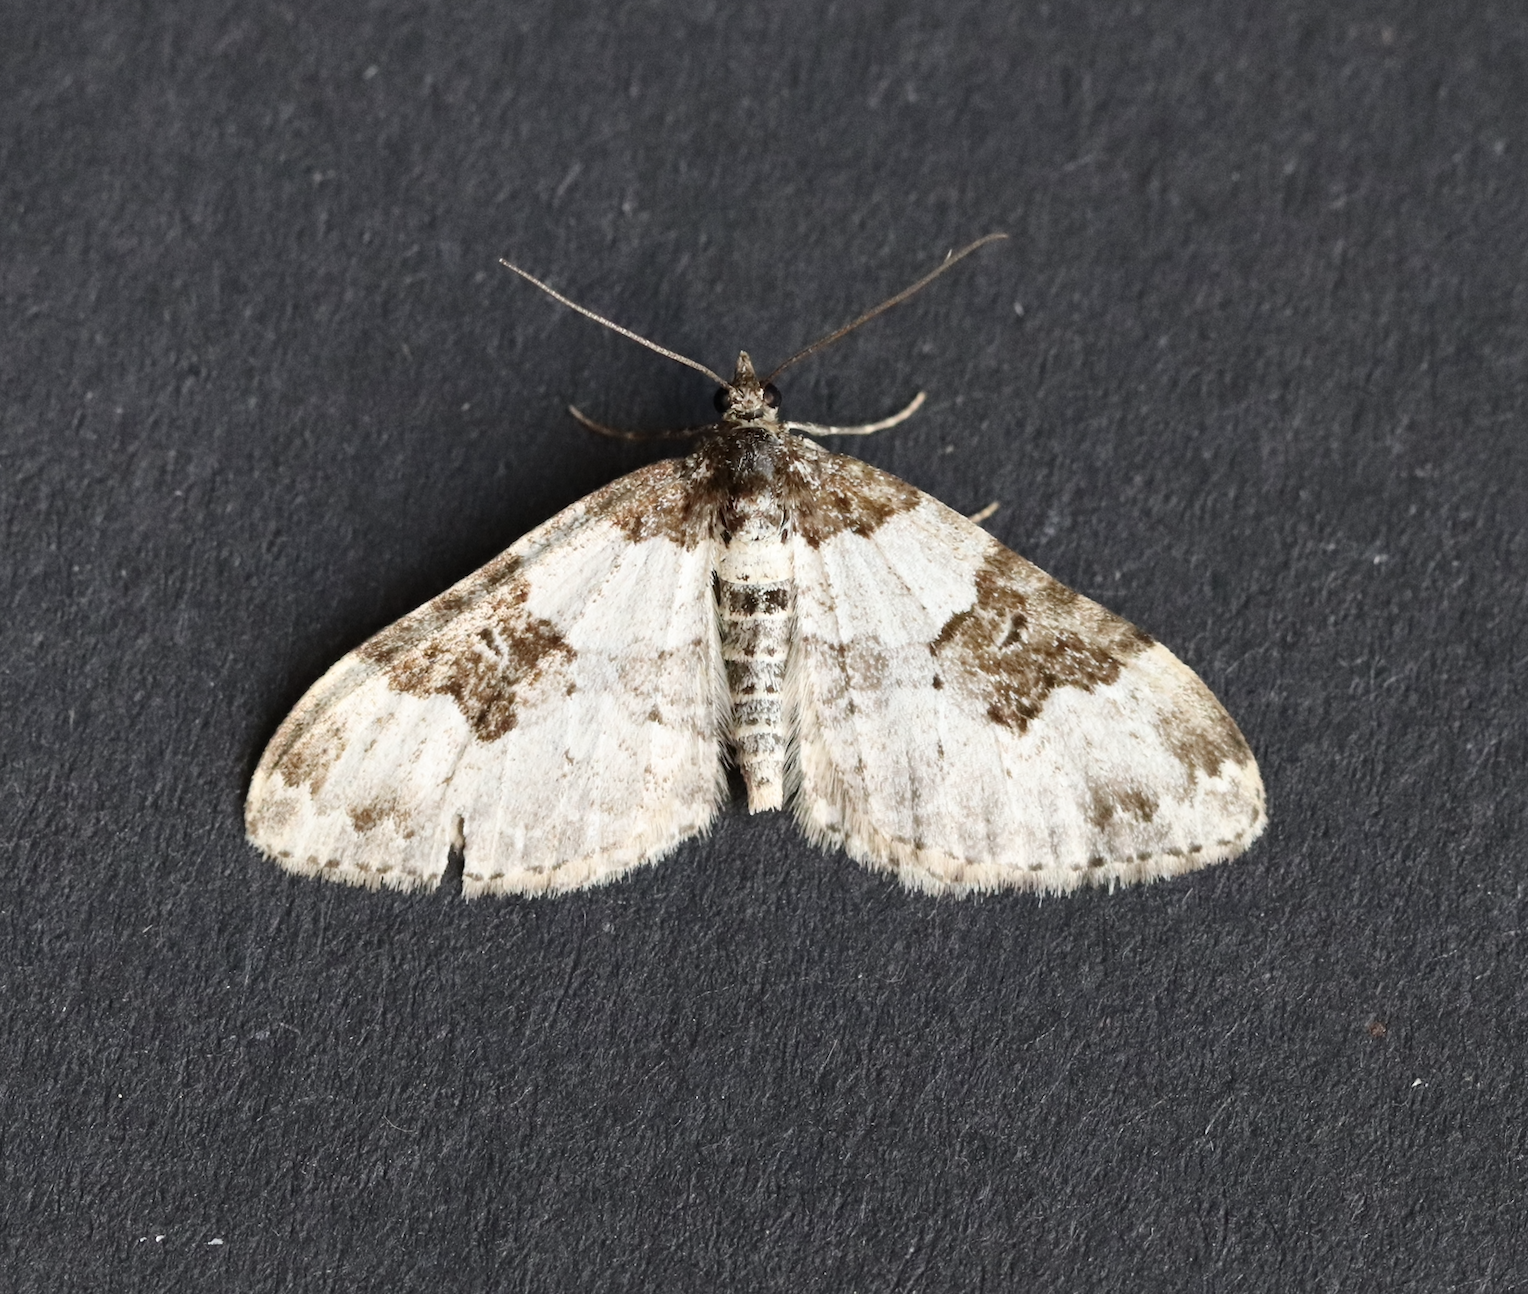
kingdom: Animalia
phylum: Arthropoda
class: Insecta
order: Lepidoptera
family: Geometridae
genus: Xanthorhoe
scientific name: Xanthorhoe fluctuata
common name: Garden carpet
